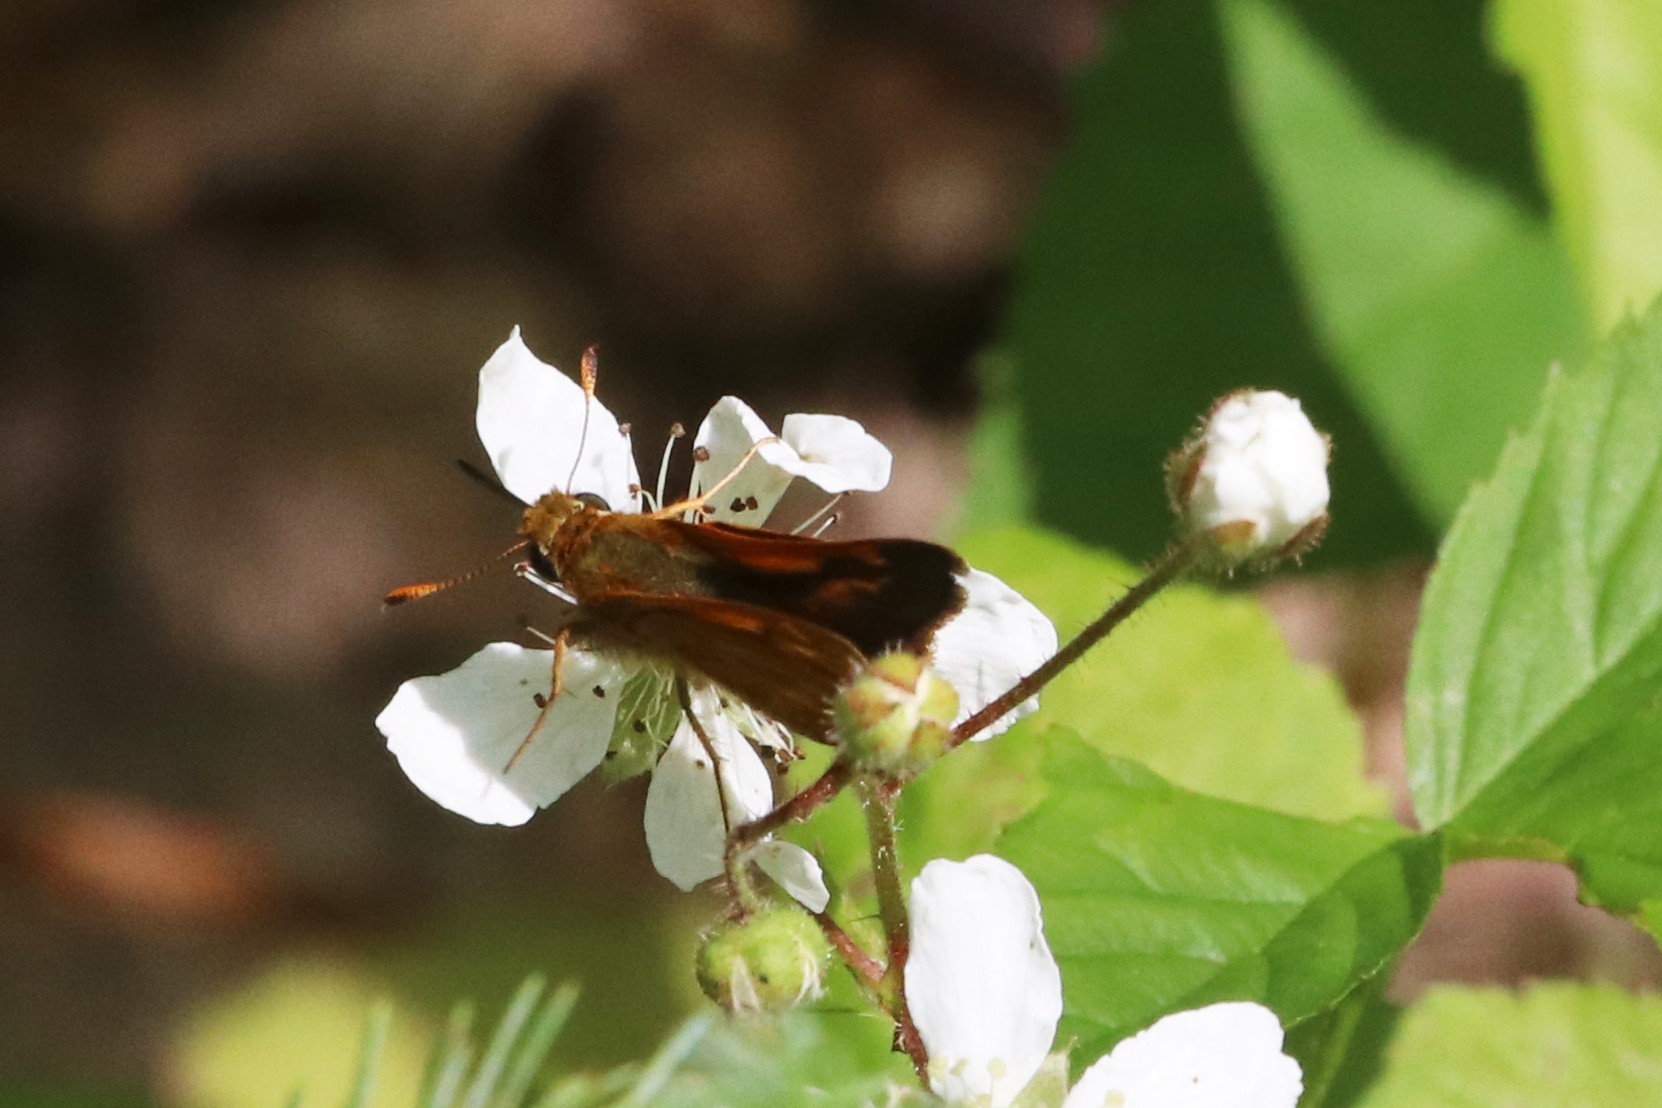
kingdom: Animalia
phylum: Arthropoda
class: Insecta
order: Lepidoptera
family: Hesperiidae
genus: Polites
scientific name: Polites mystic
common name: Long dash
